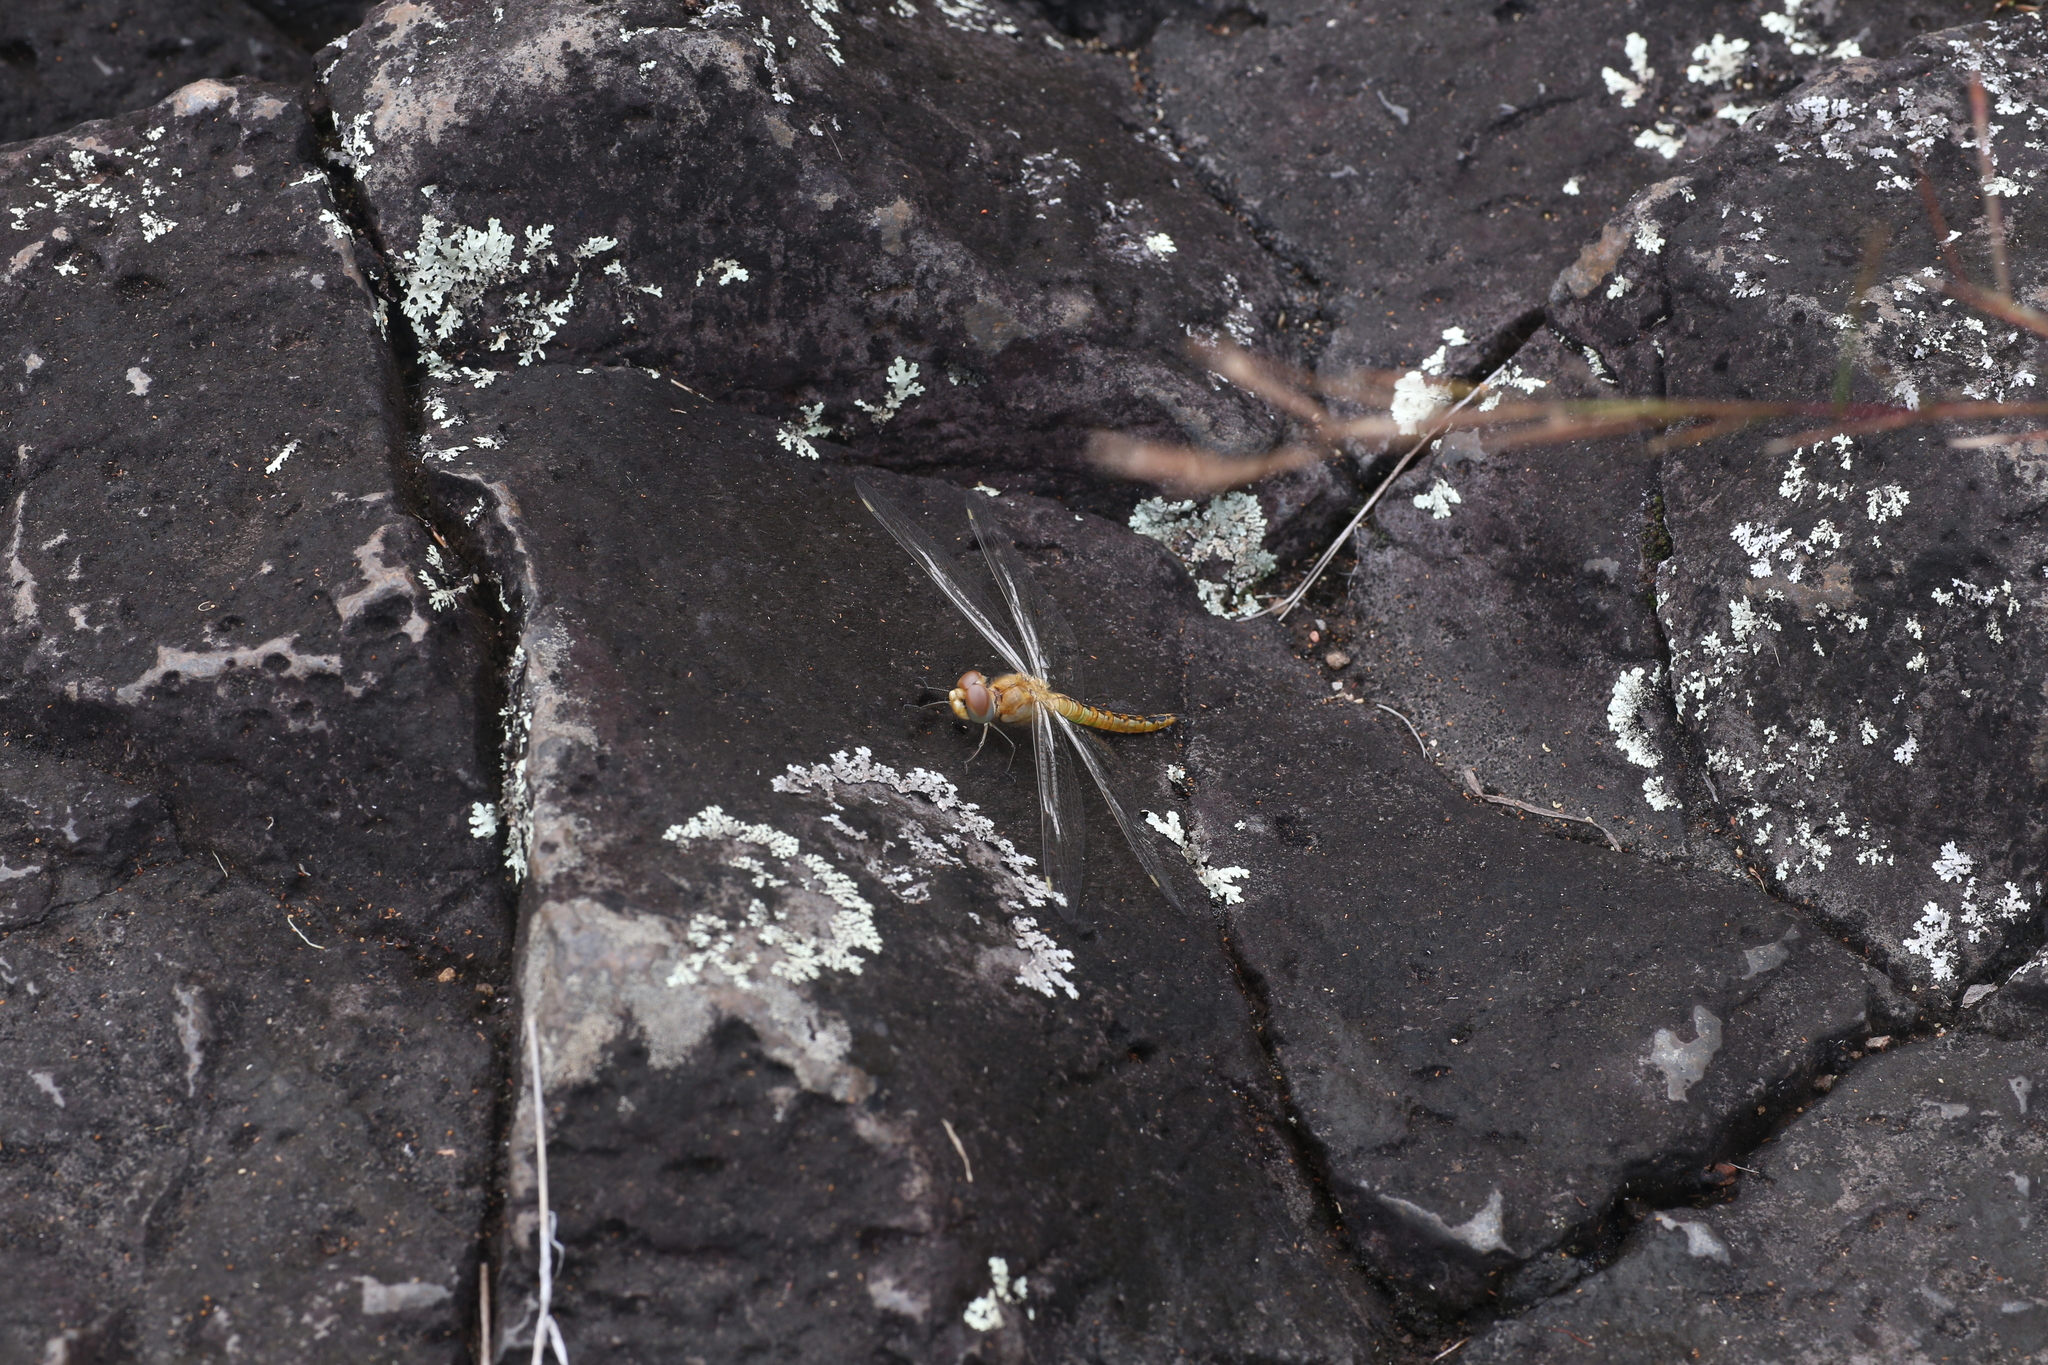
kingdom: Animalia
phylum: Arthropoda
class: Insecta
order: Odonata
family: Libellulidae
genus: Pantala
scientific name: Pantala flavescens
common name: Wandering glider
